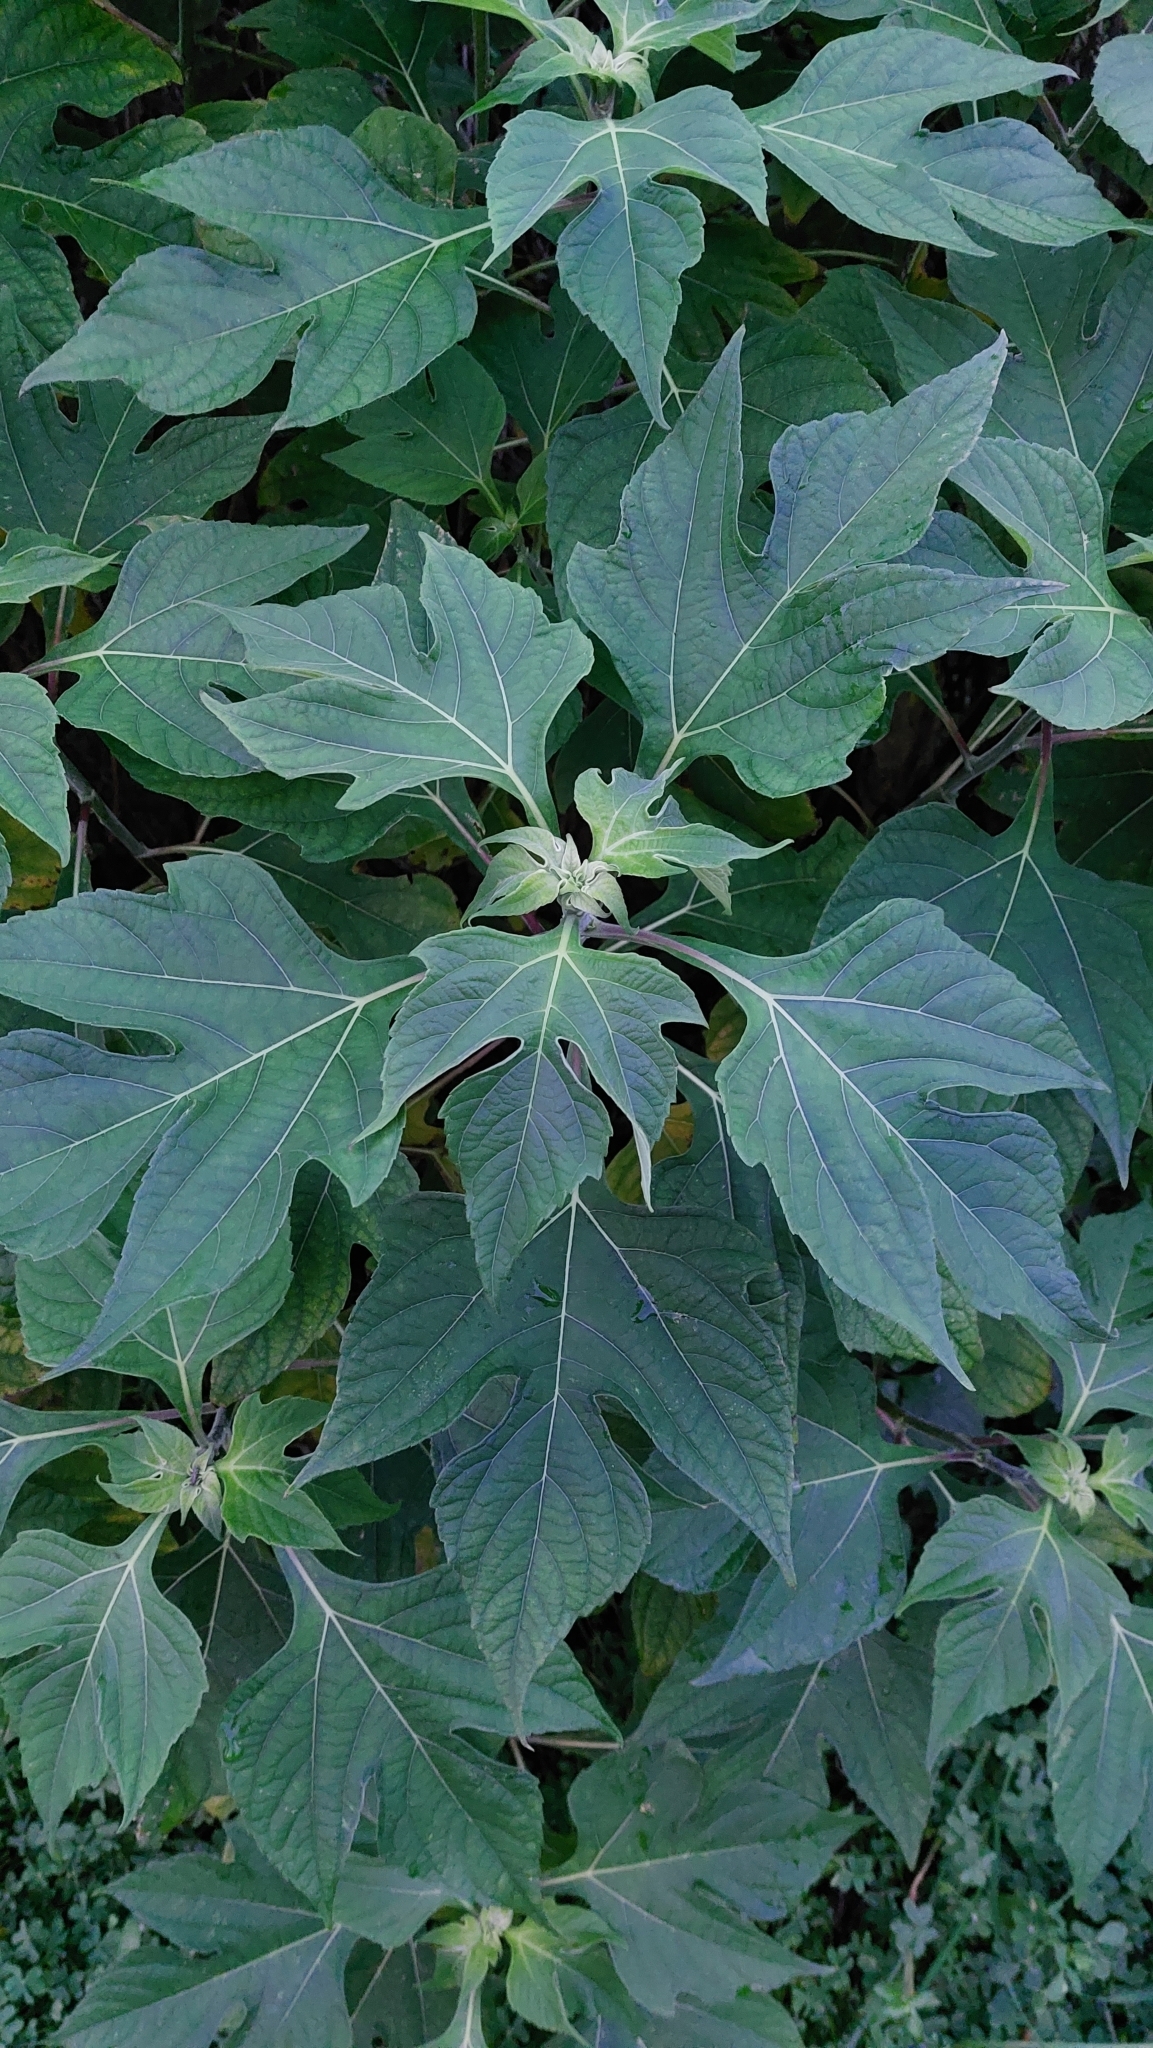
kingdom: Plantae
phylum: Tracheophyta
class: Magnoliopsida
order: Asterales
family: Asteraceae
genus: Tithonia
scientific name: Tithonia diversifolia
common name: Tree marigold
